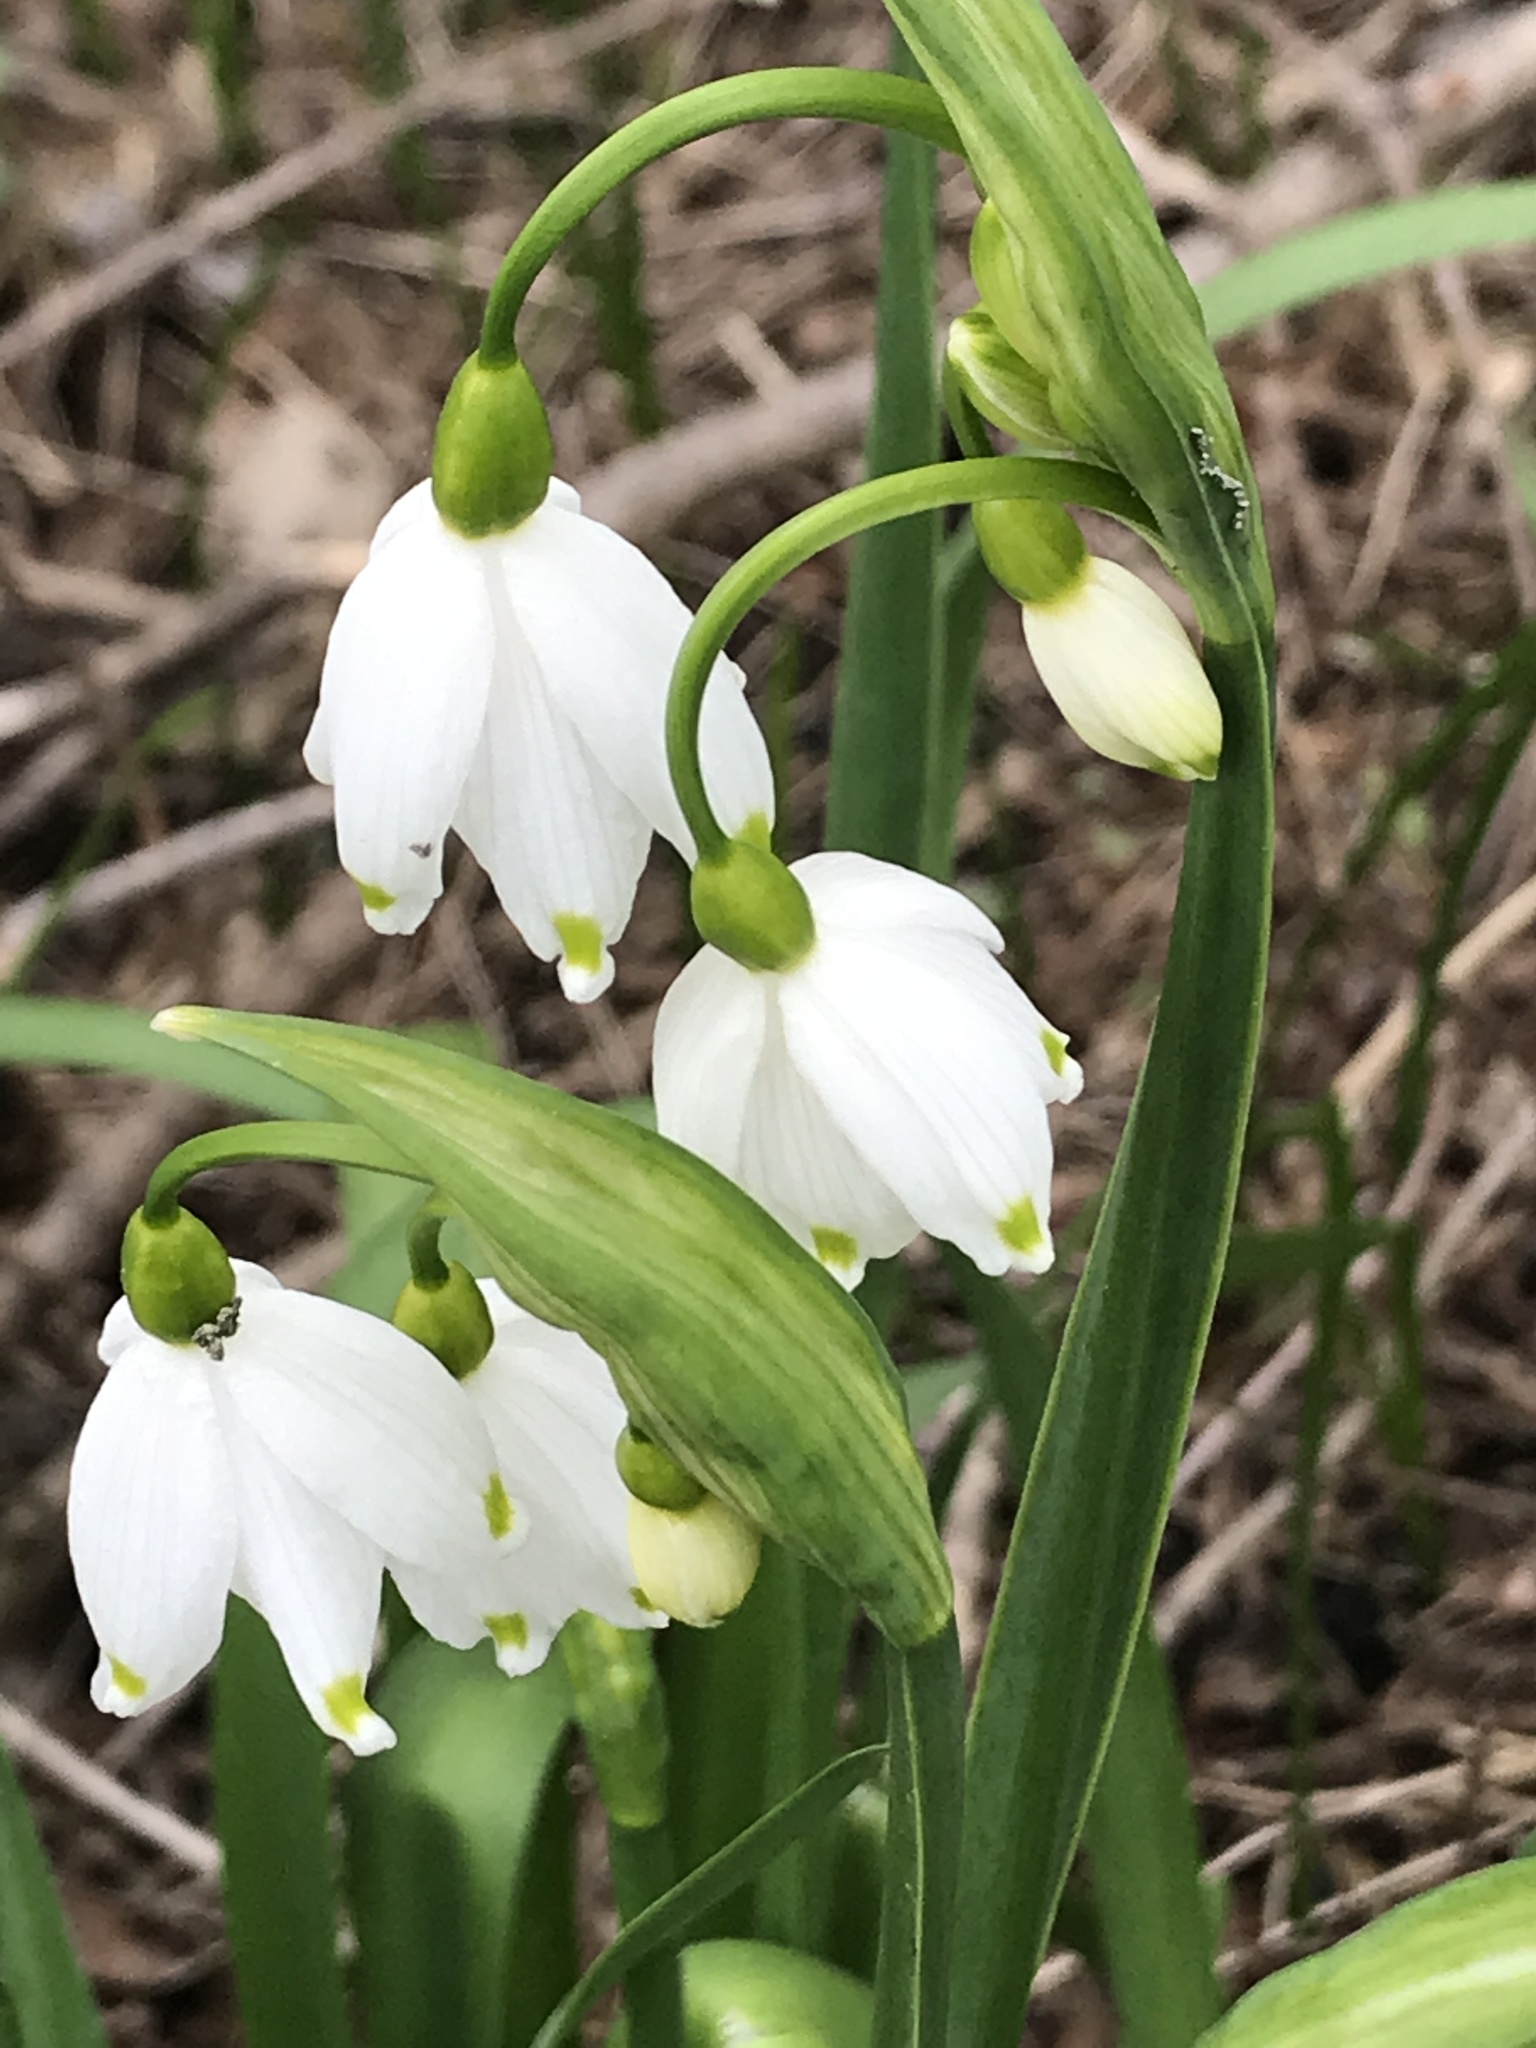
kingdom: Plantae
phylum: Tracheophyta
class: Liliopsida
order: Asparagales
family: Amaryllidaceae
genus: Leucojum
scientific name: Leucojum aestivum
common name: Summer snowflake
